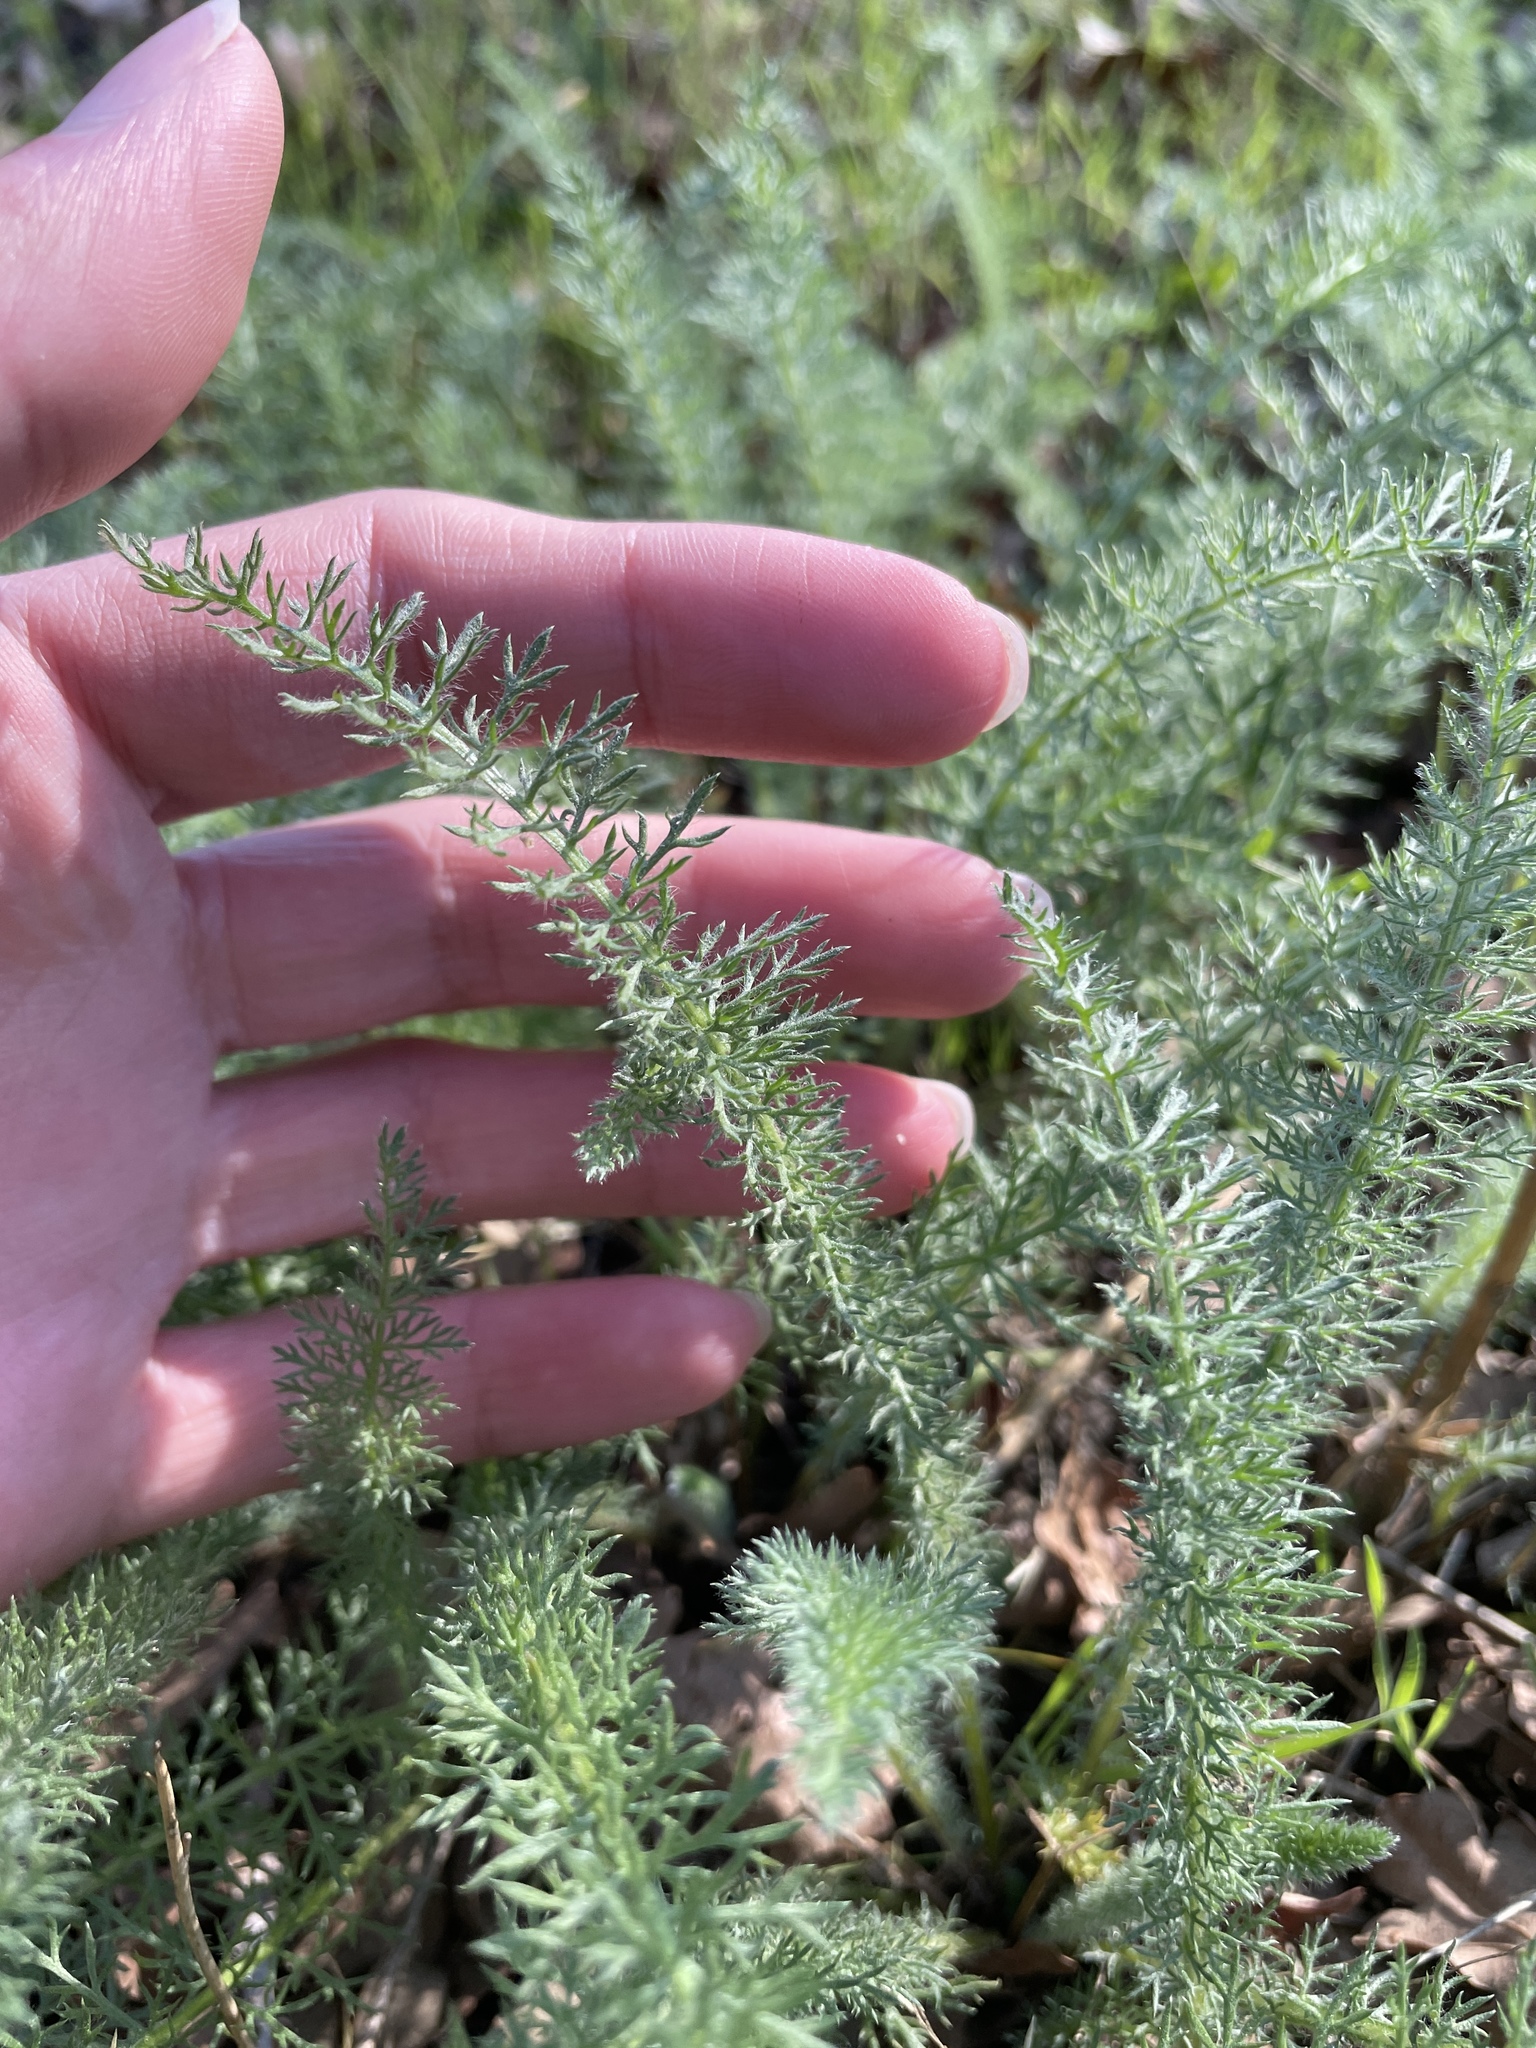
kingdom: Plantae
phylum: Tracheophyta
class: Magnoliopsida
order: Asterales
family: Asteraceae
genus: Achillea
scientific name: Achillea millefolium
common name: Yarrow
